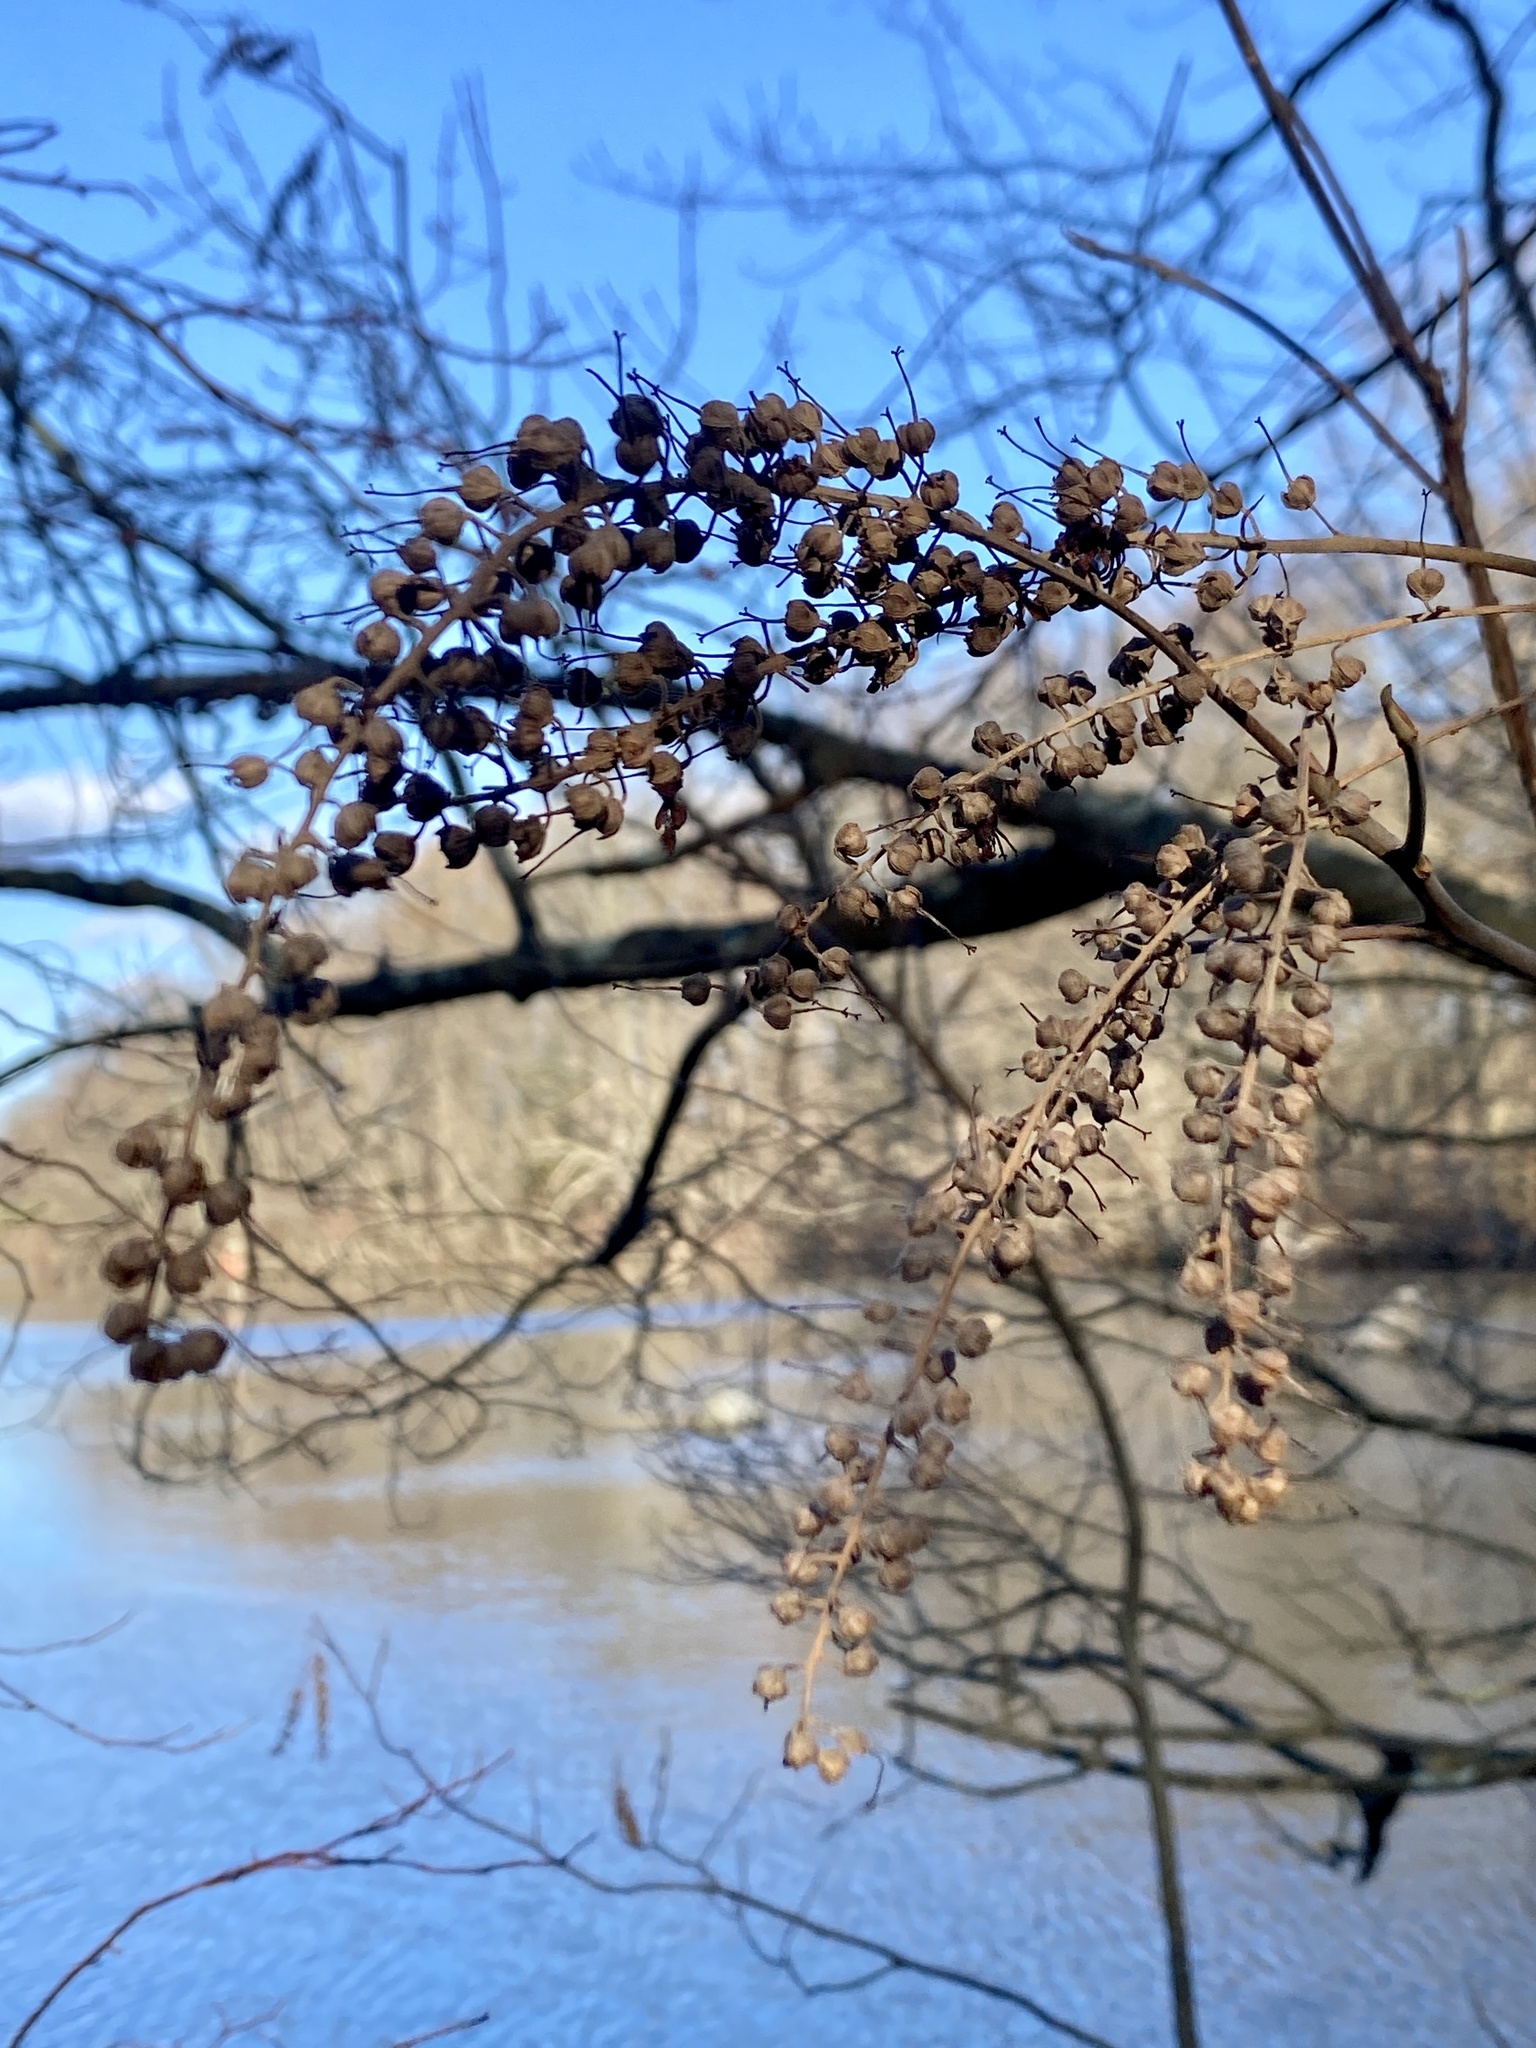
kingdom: Plantae
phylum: Tracheophyta
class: Magnoliopsida
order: Ericales
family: Clethraceae
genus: Clethra
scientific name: Clethra alnifolia
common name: Sweet pepperbush
